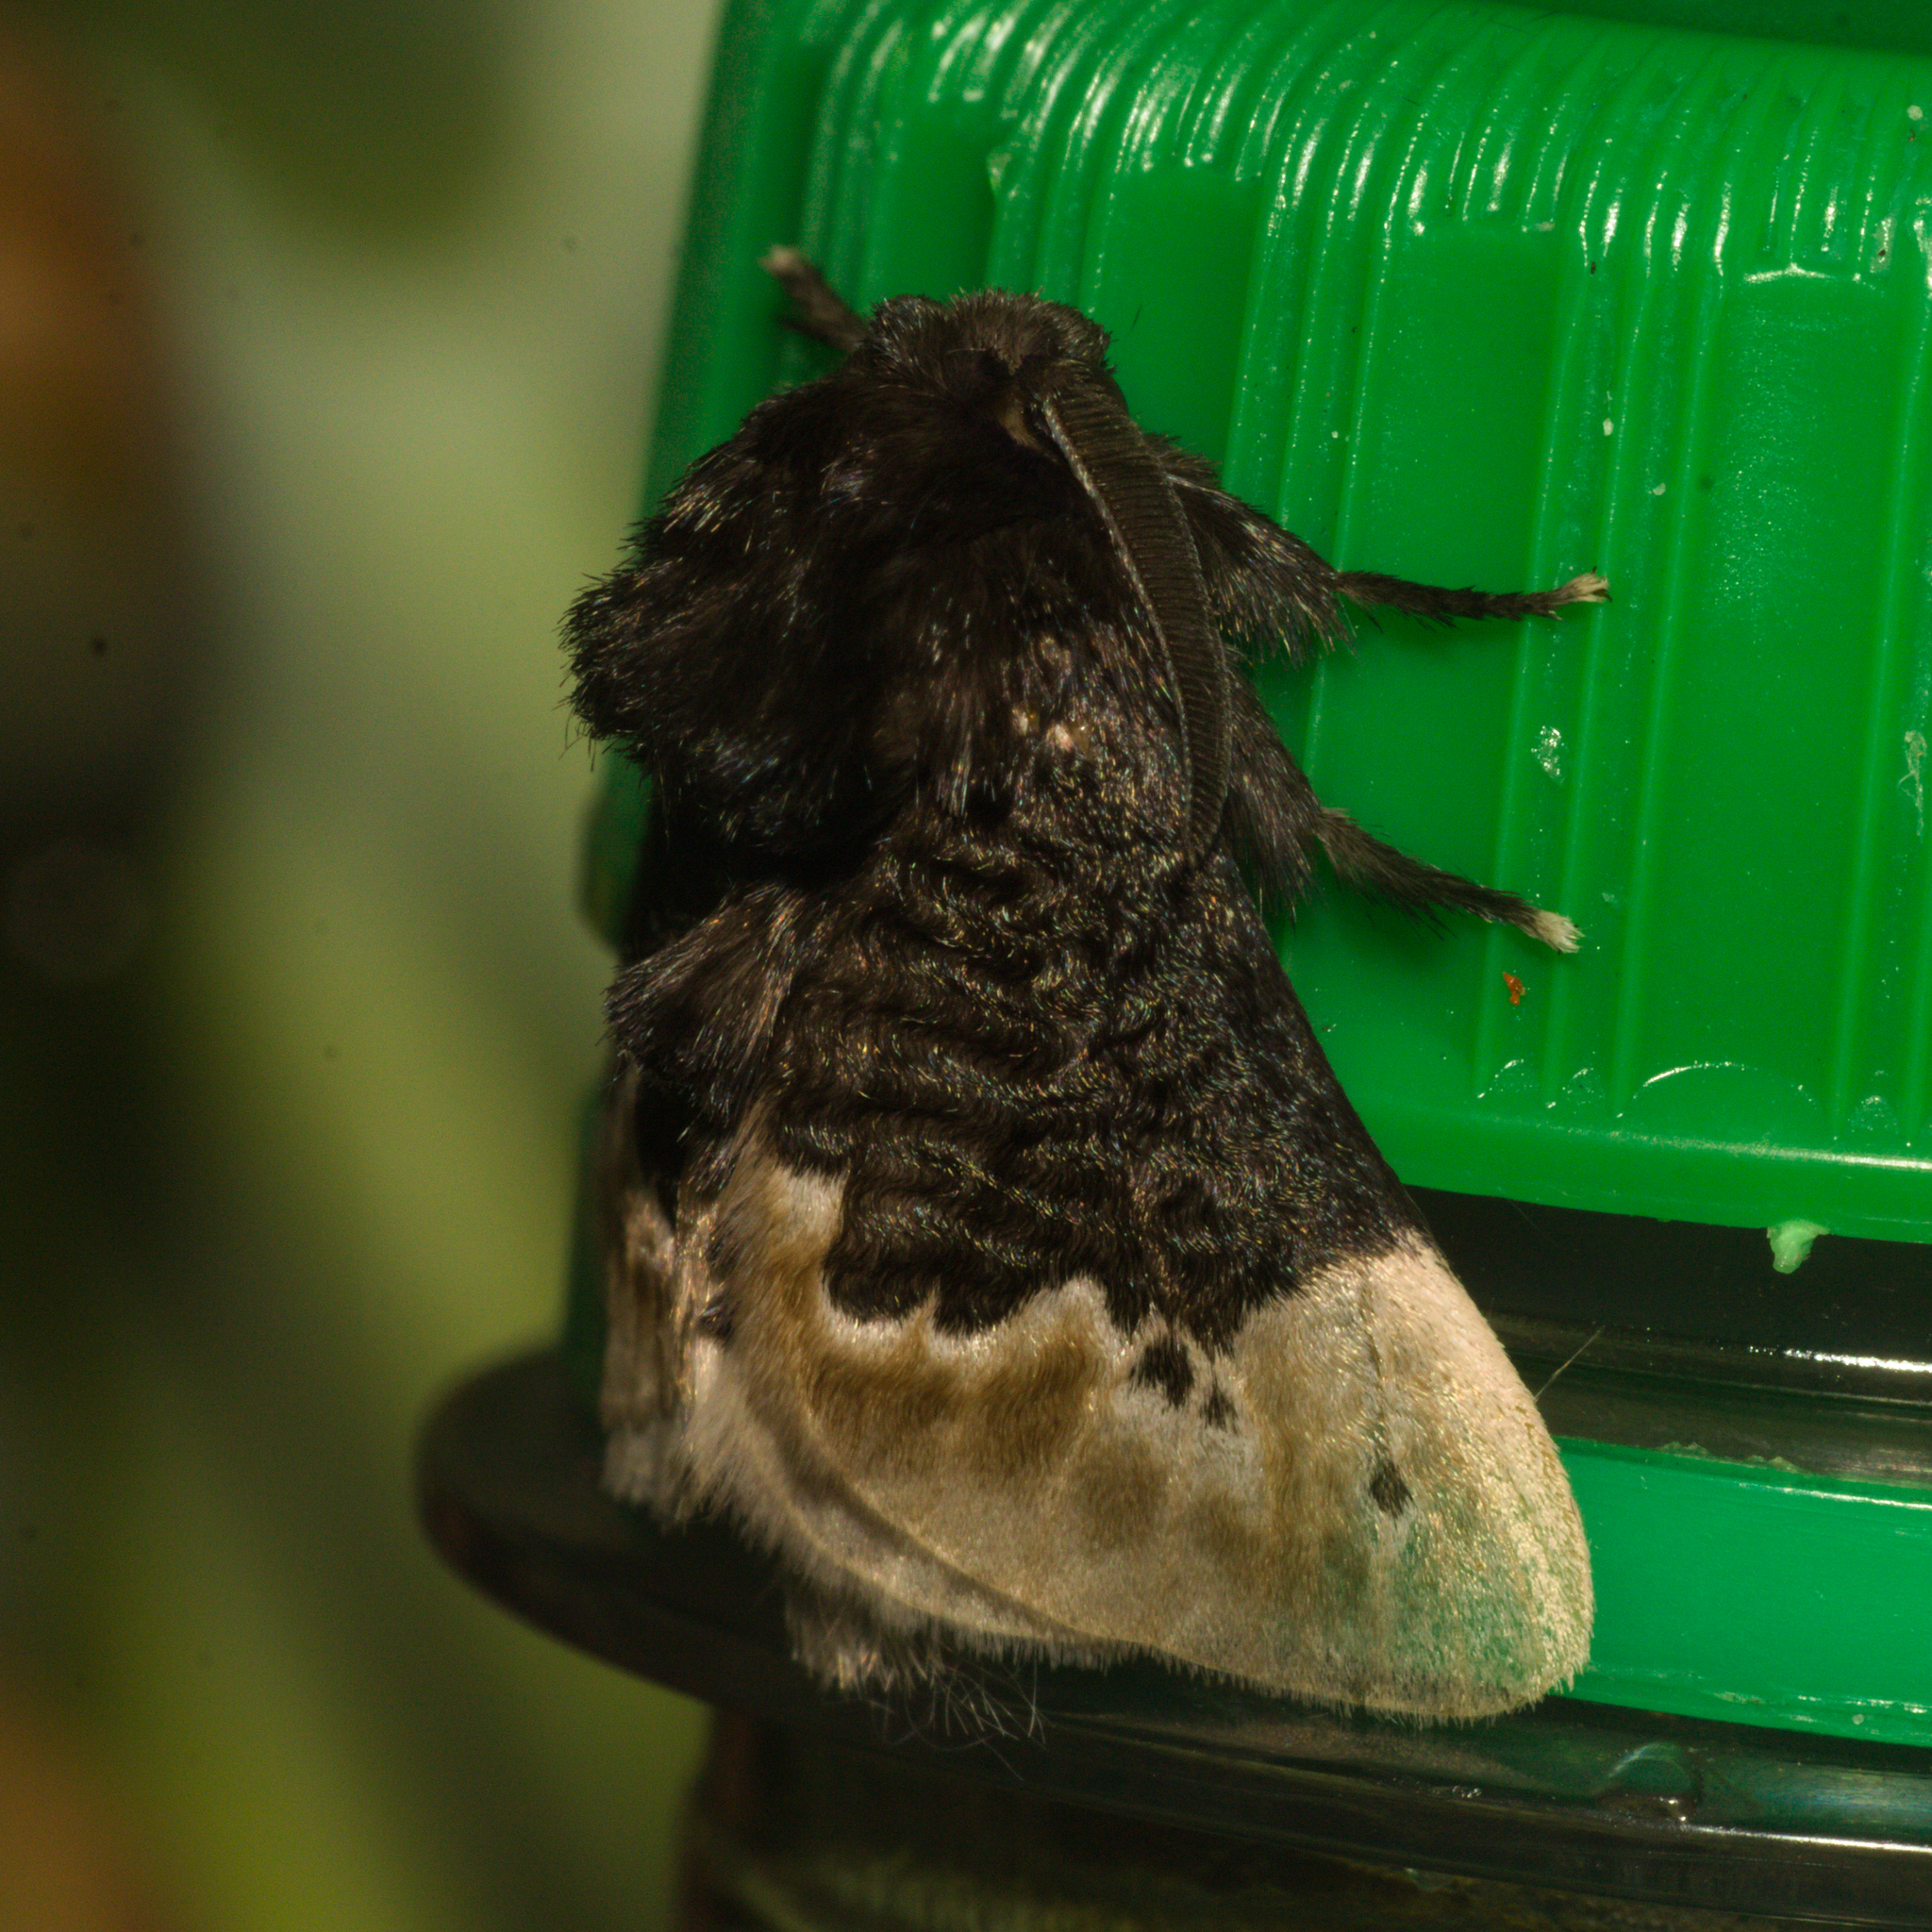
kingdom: Animalia
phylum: Arthropoda
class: Insecta
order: Lepidoptera
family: Megalopygidae
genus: Podalia
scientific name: Podalia dimidiatus
